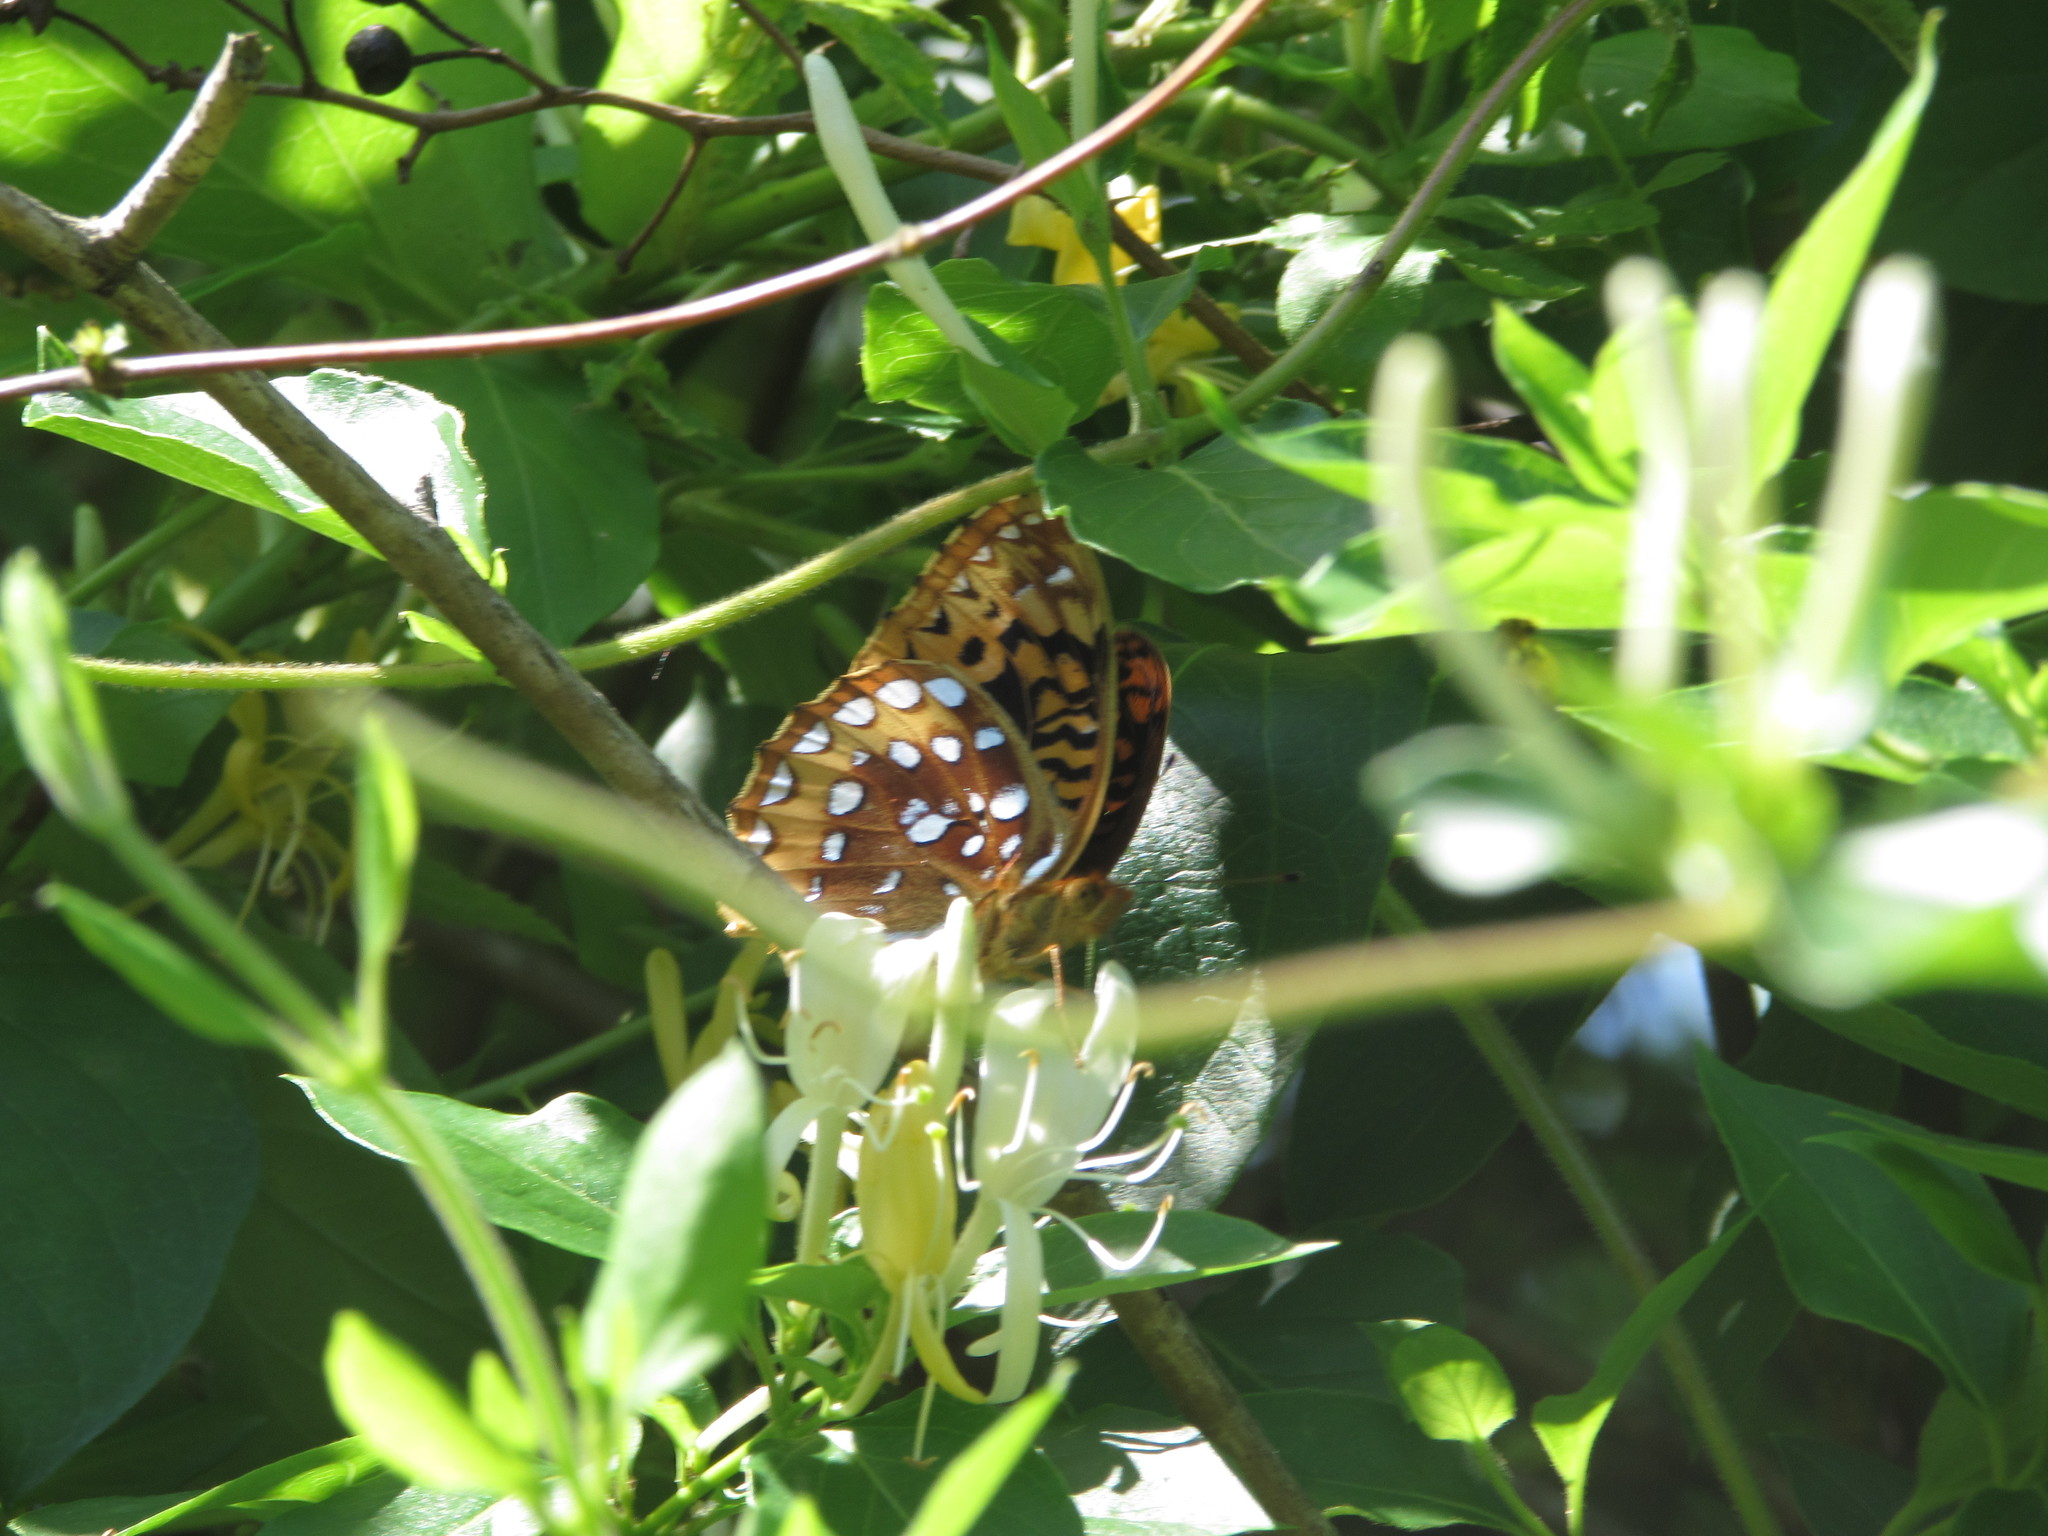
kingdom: Plantae
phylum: Tracheophyta
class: Magnoliopsida
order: Dipsacales
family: Caprifoliaceae
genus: Lonicera
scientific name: Lonicera japonica
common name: Japanese honeysuckle
